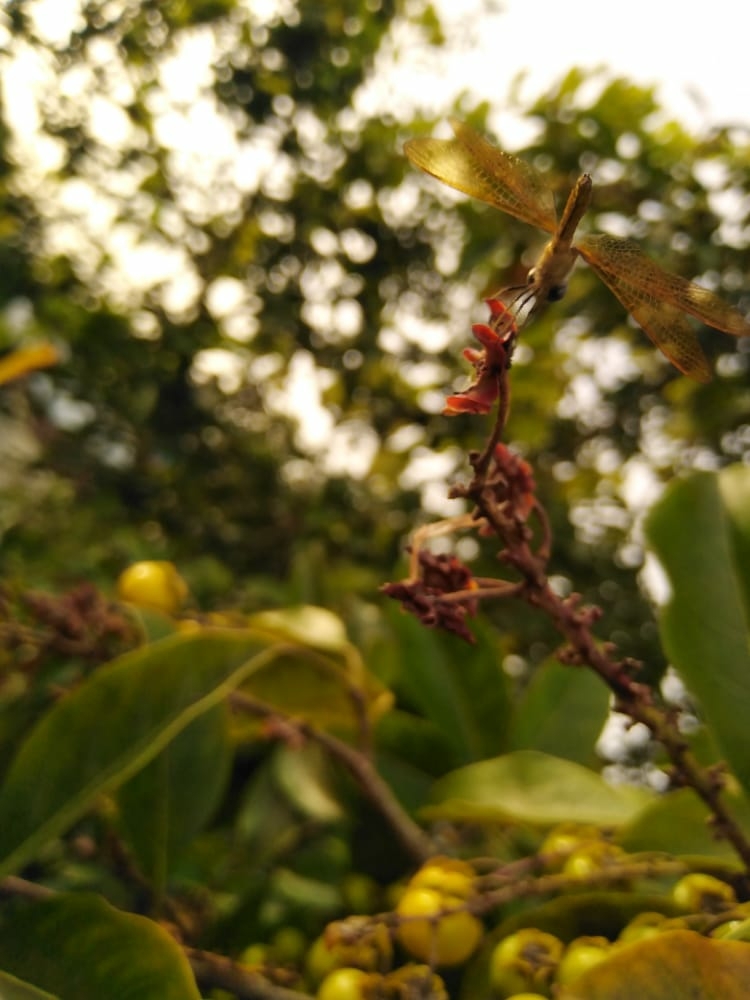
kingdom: Animalia
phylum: Arthropoda
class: Insecta
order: Odonata
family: Libellulidae
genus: Perithemis
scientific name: Perithemis domitia
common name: Slough amberwing
